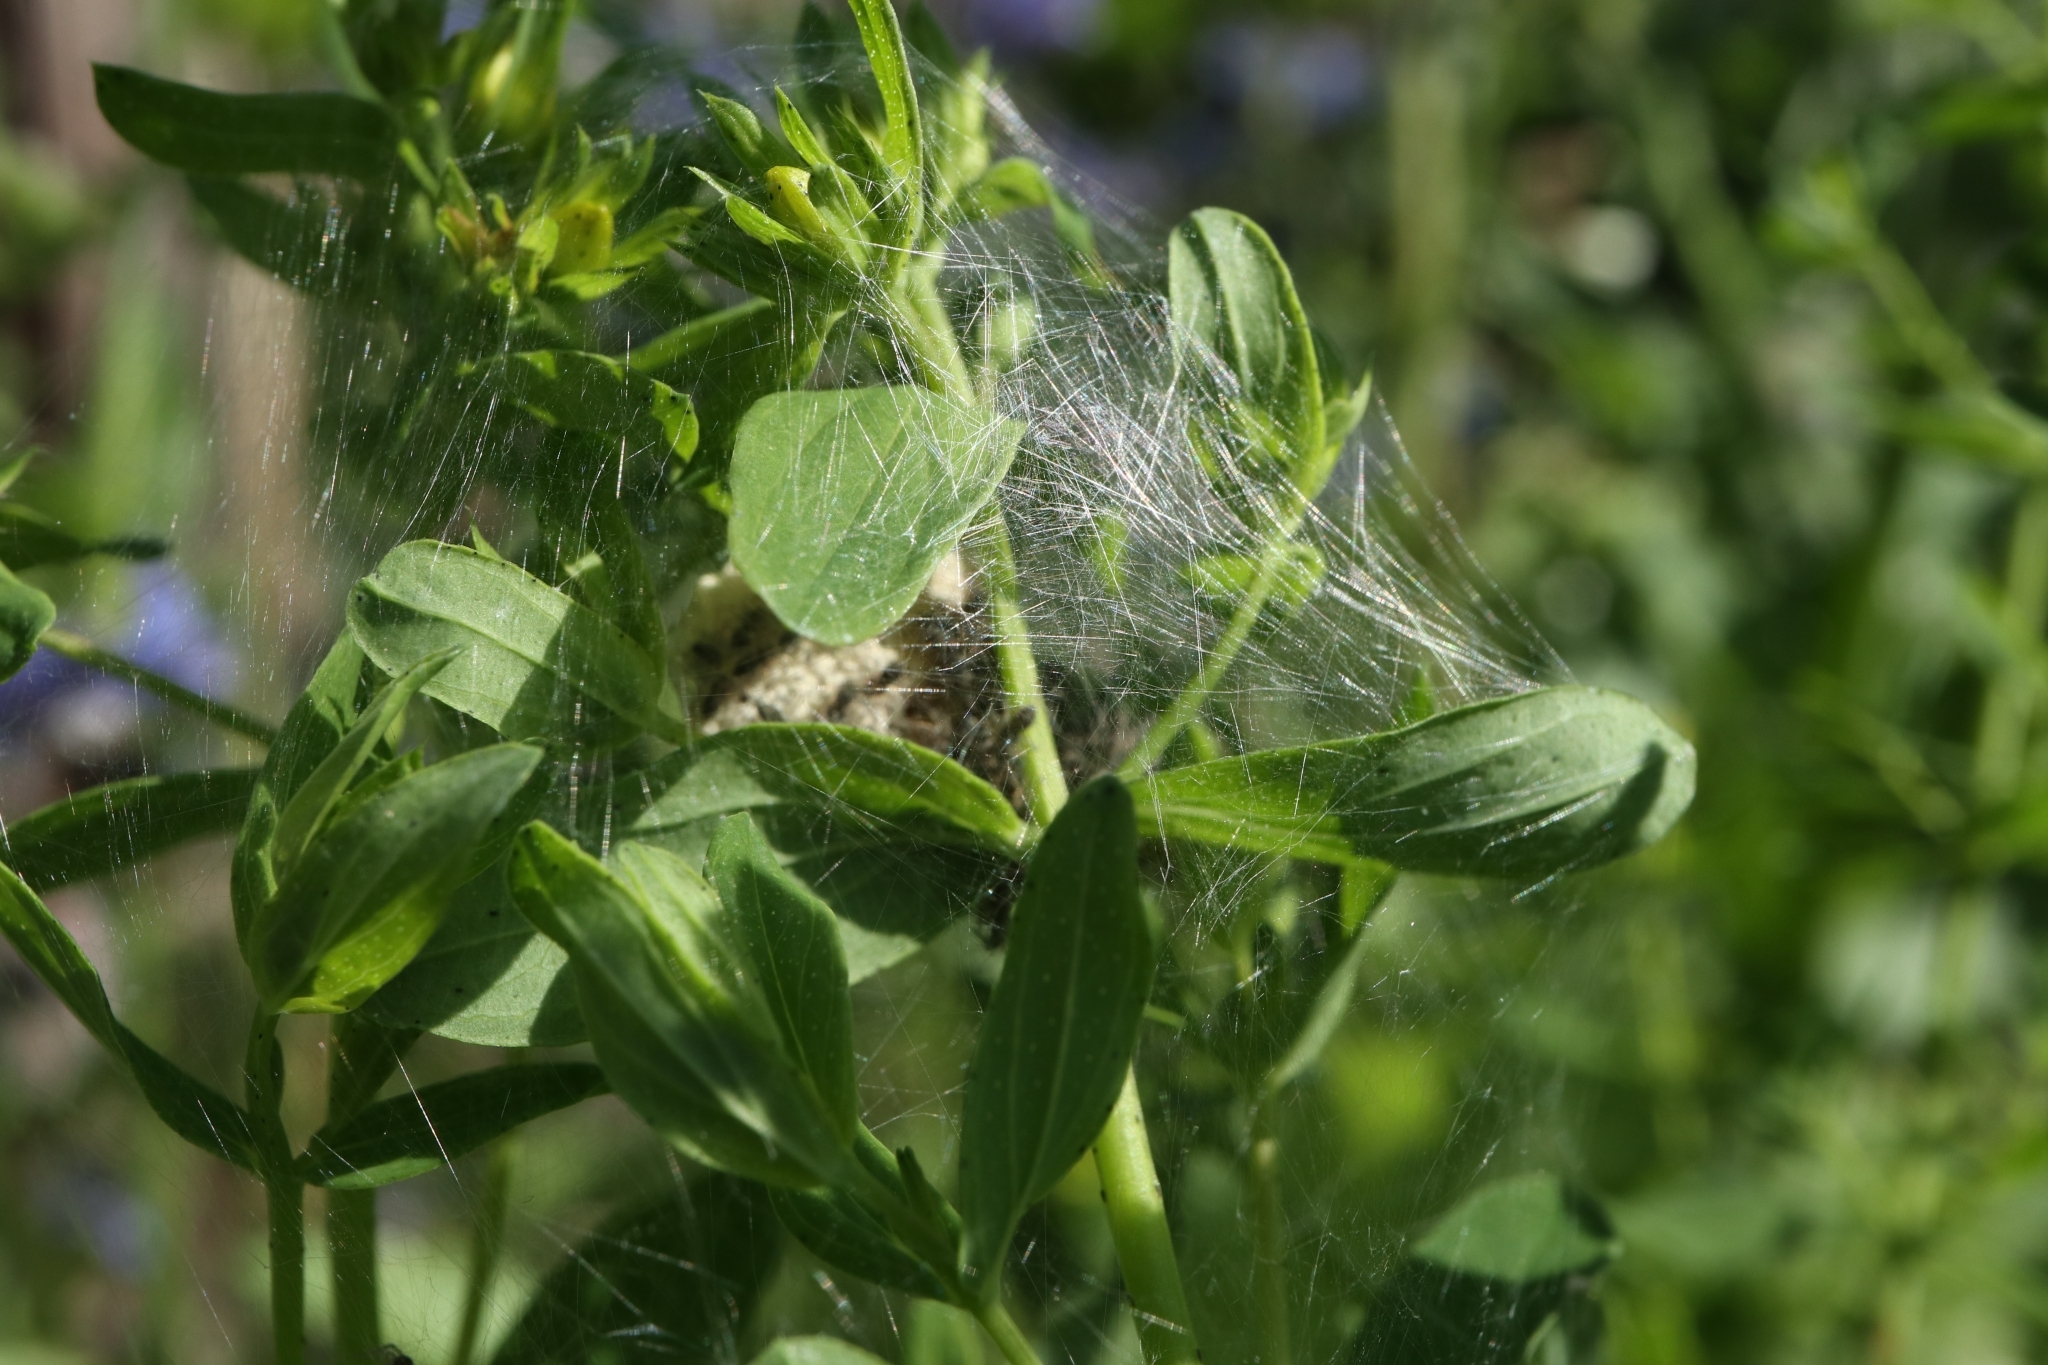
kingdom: Animalia
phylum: Arthropoda
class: Arachnida
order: Araneae
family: Pisauridae
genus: Pisaura
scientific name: Pisaura mirabilis
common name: Tent spider
